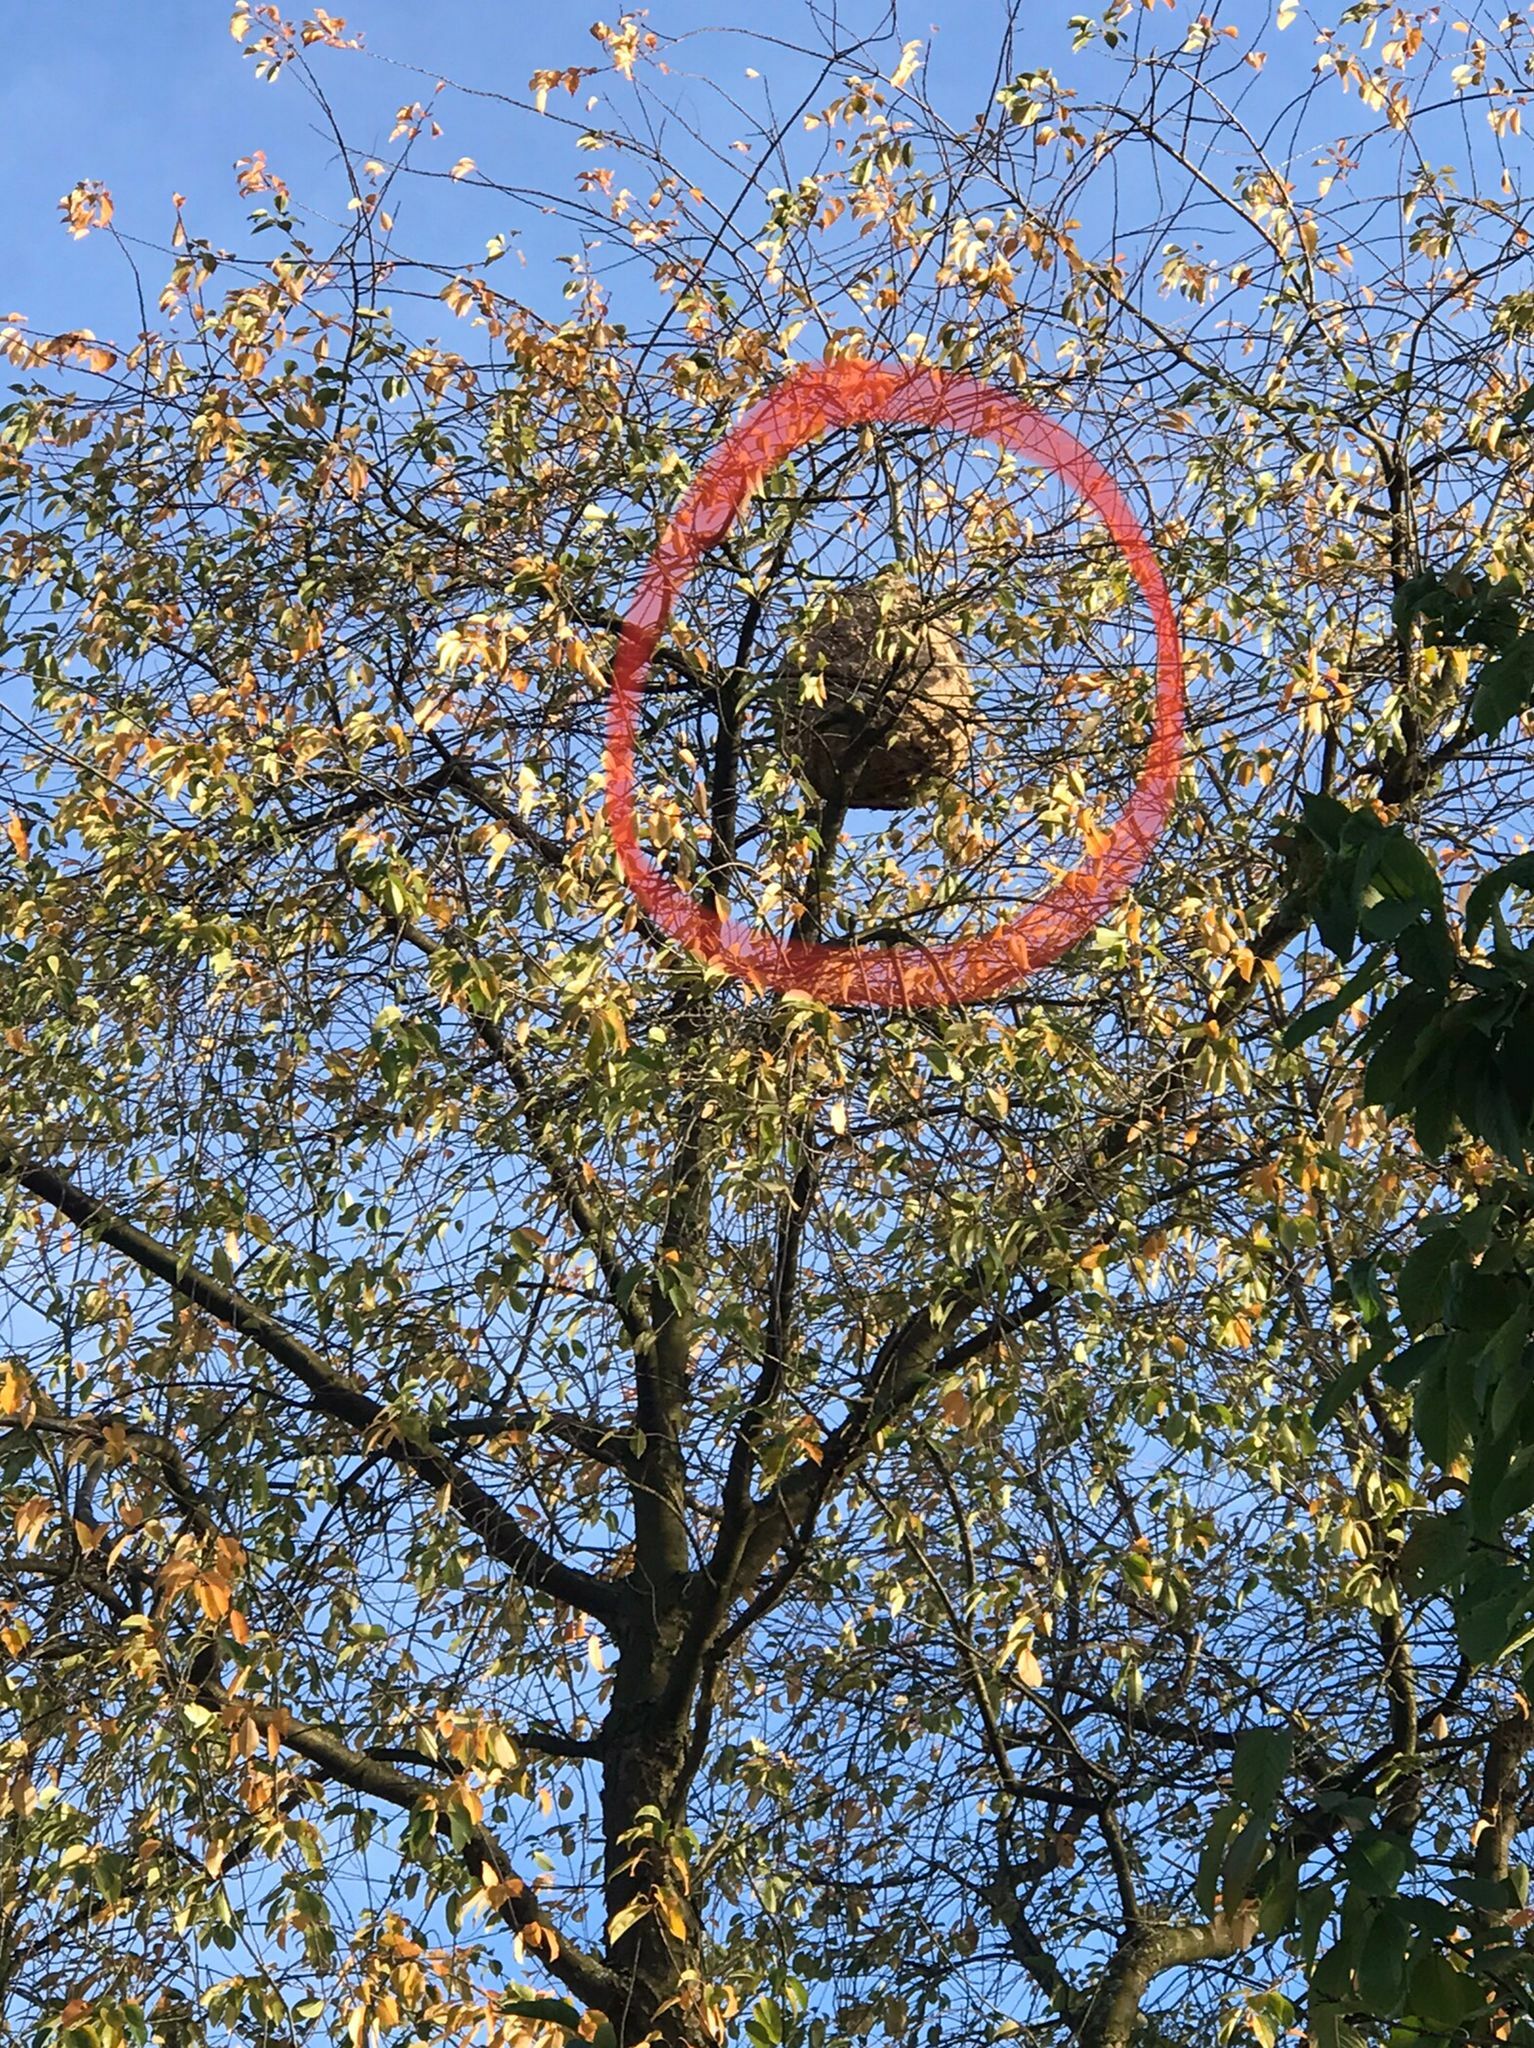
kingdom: Animalia
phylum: Arthropoda
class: Insecta
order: Hymenoptera
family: Vespidae
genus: Vespa
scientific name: Vespa velutina
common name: Asian hornet
